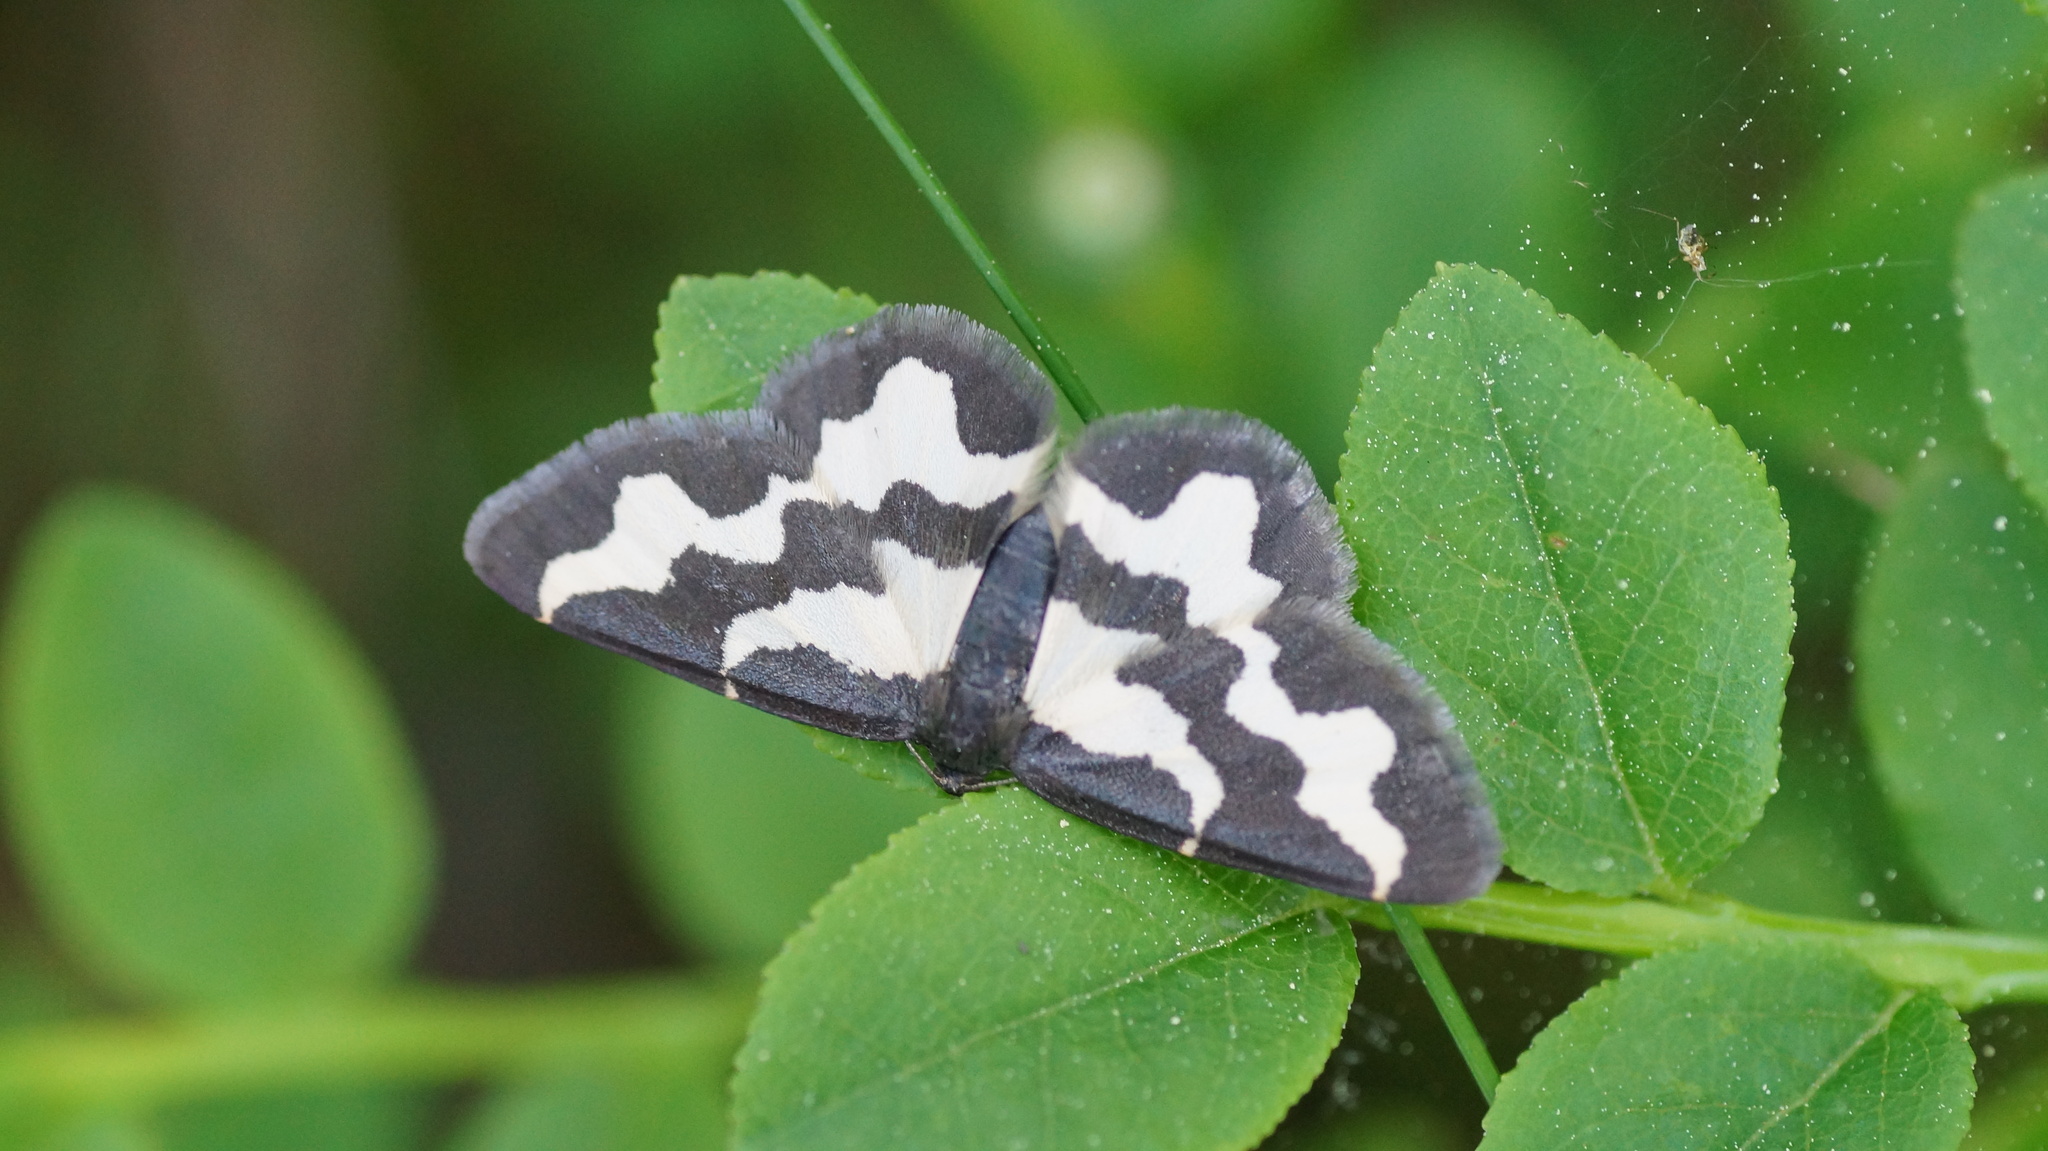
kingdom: Animalia
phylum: Arthropoda
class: Insecta
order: Lepidoptera
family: Geometridae
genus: Lomaspilis
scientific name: Lomaspilis marginata
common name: Clouded border
